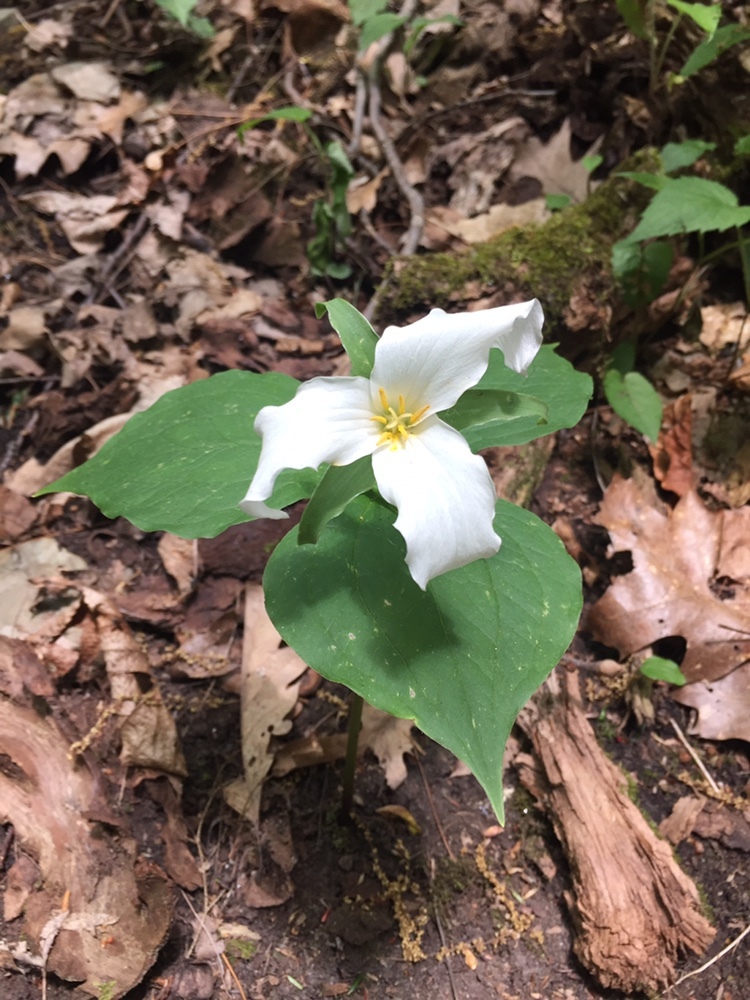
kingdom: Plantae
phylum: Tracheophyta
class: Liliopsida
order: Liliales
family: Melanthiaceae
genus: Trillium
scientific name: Trillium grandiflorum
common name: Great white trillium
